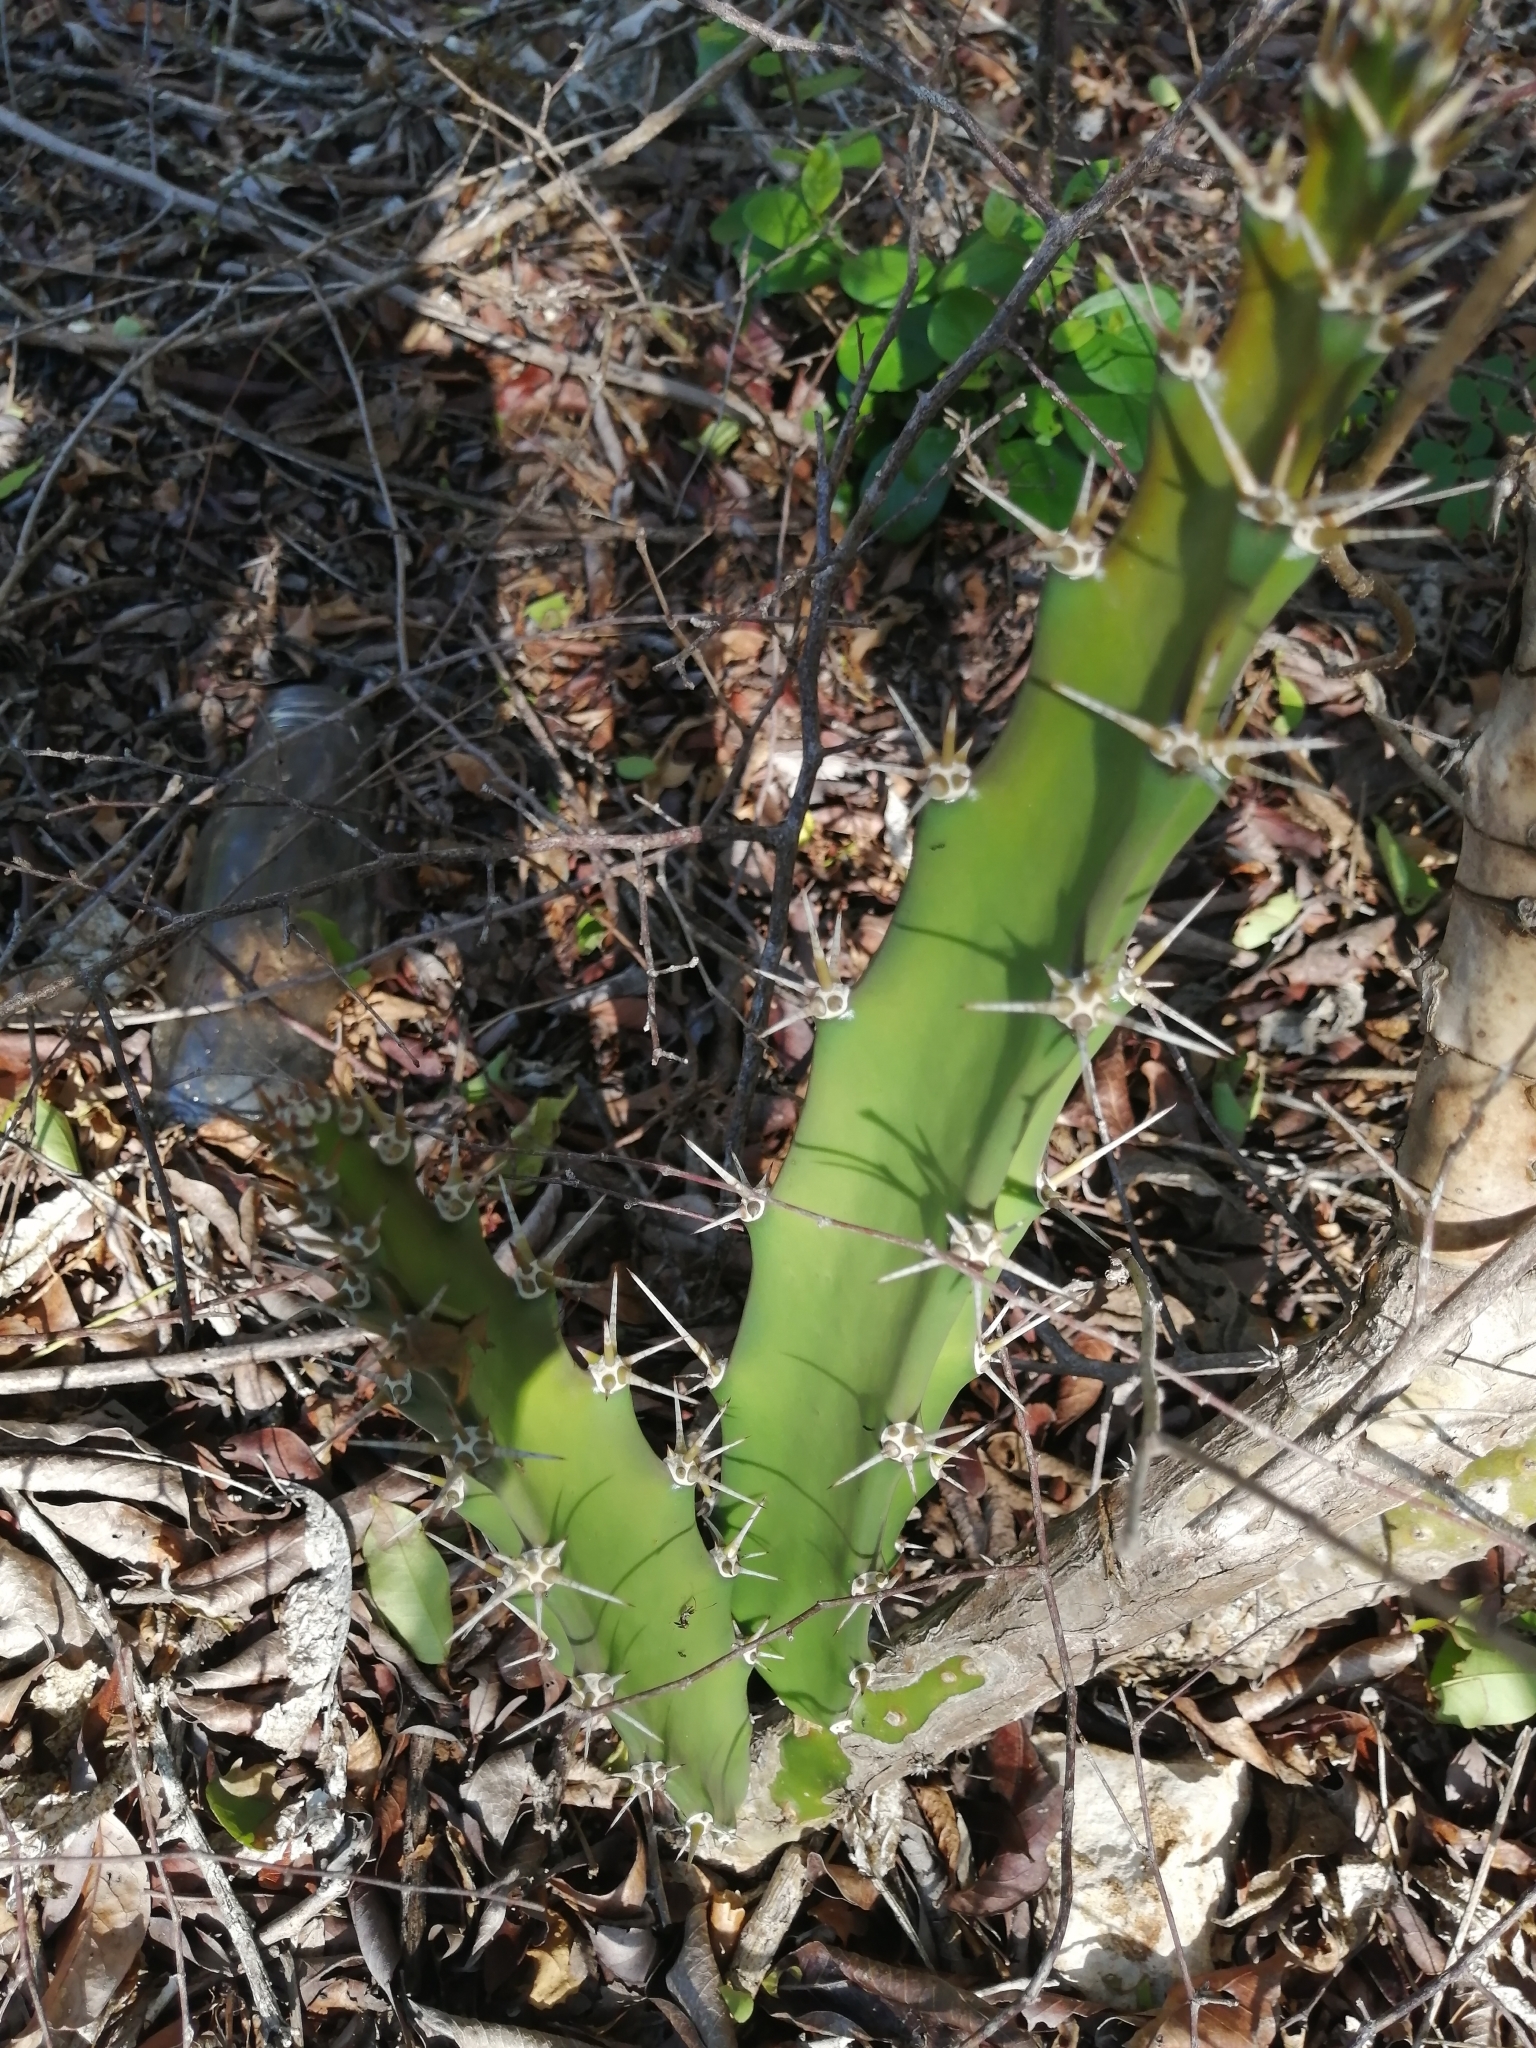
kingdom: Plantae
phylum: Tracheophyta
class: Magnoliopsida
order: Caryophyllales
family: Cactaceae
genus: Acanthocereus
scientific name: Acanthocereus tetragonus
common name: Triangle cactus
